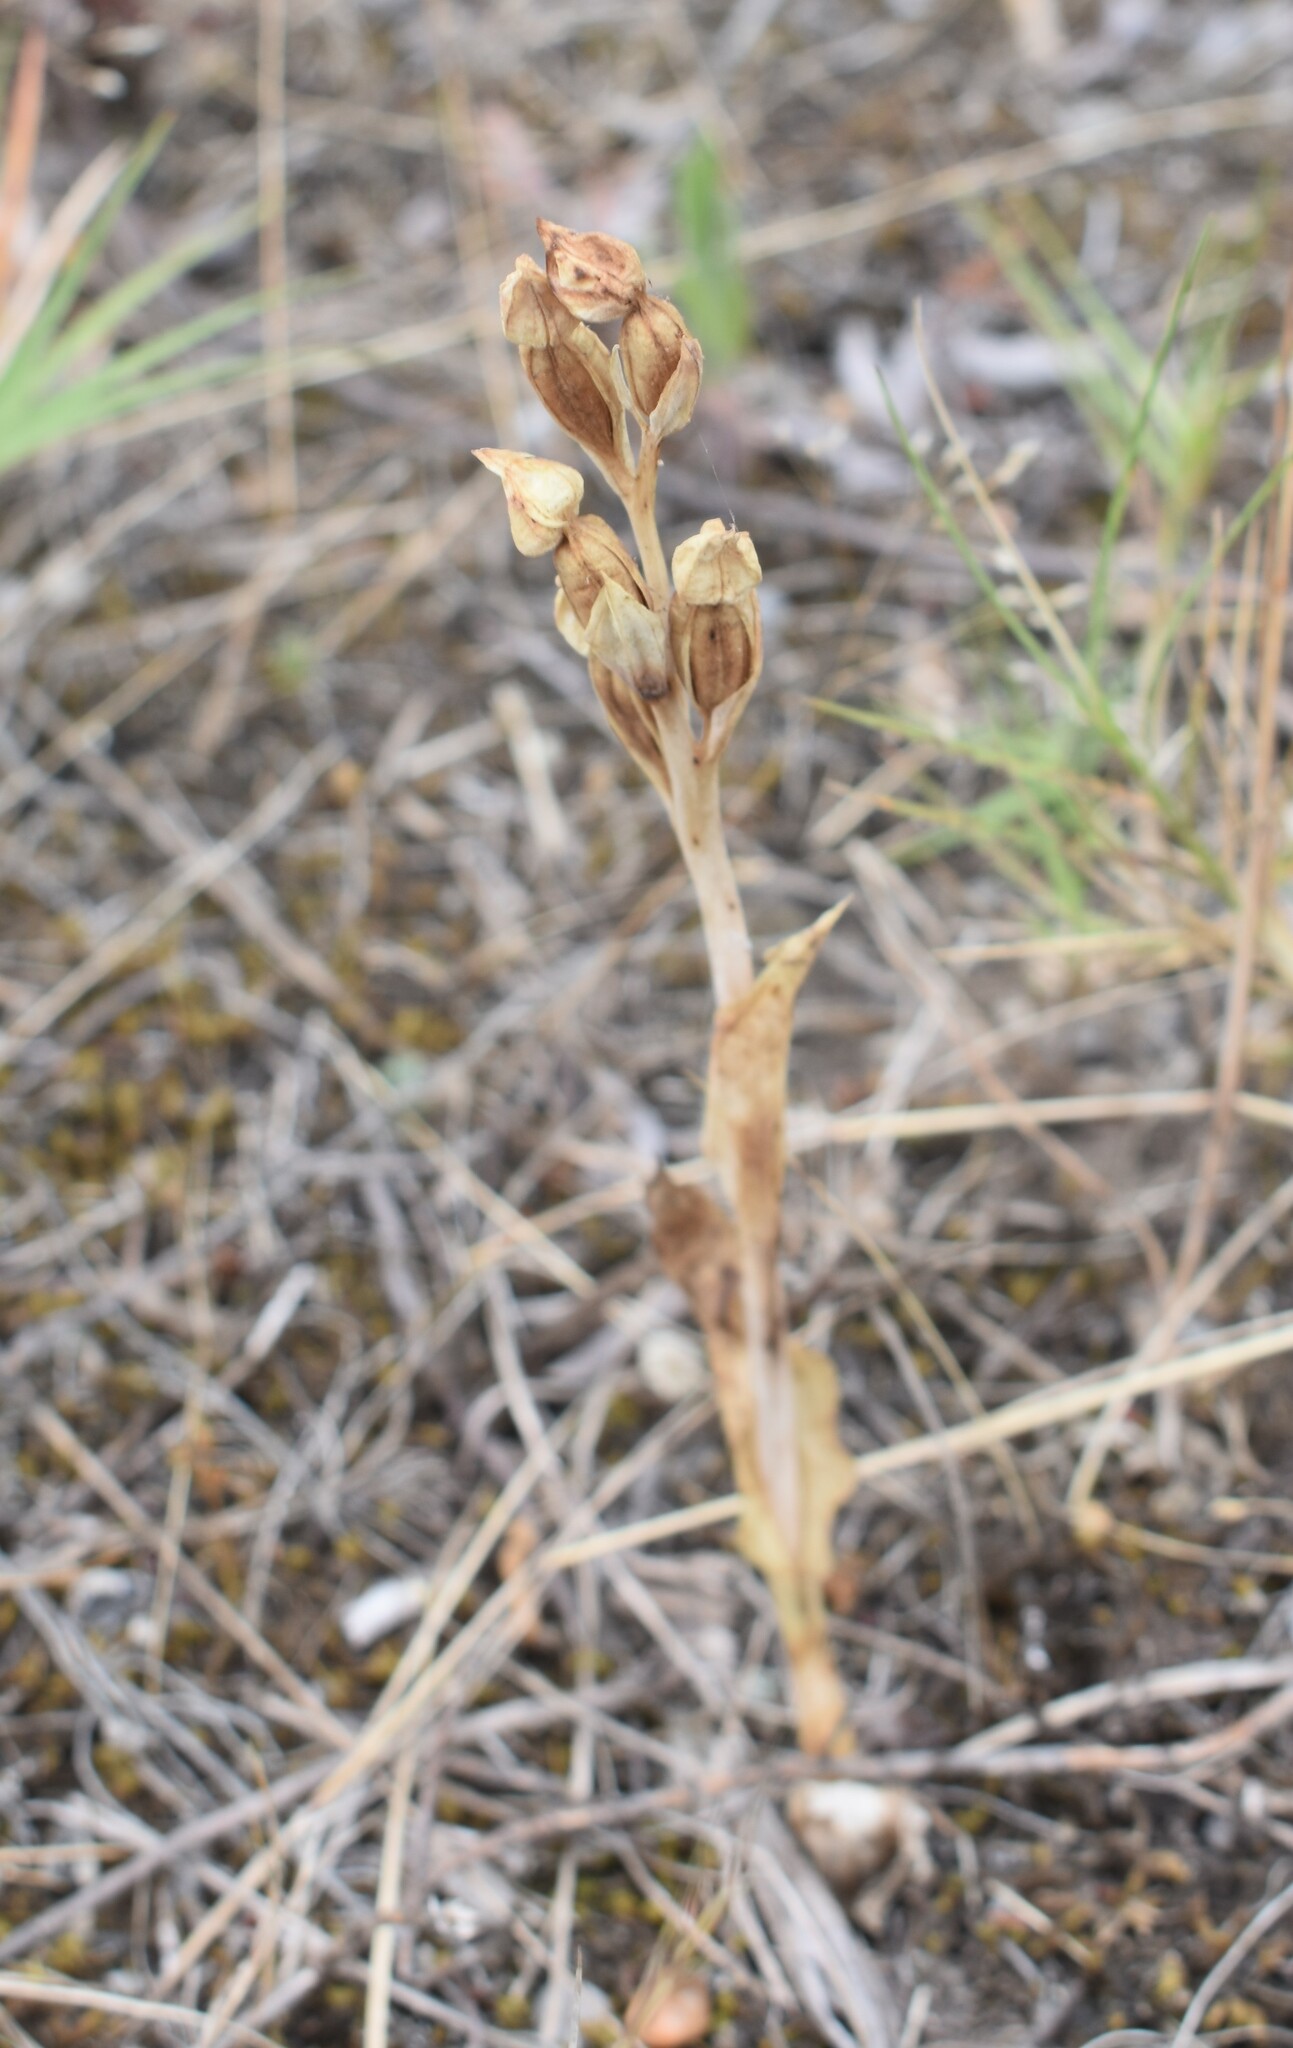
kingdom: Plantae
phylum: Tracheophyta
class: Liliopsida
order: Asparagales
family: Orchidaceae
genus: Pterygodium
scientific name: Pterygodium cleistogamum
